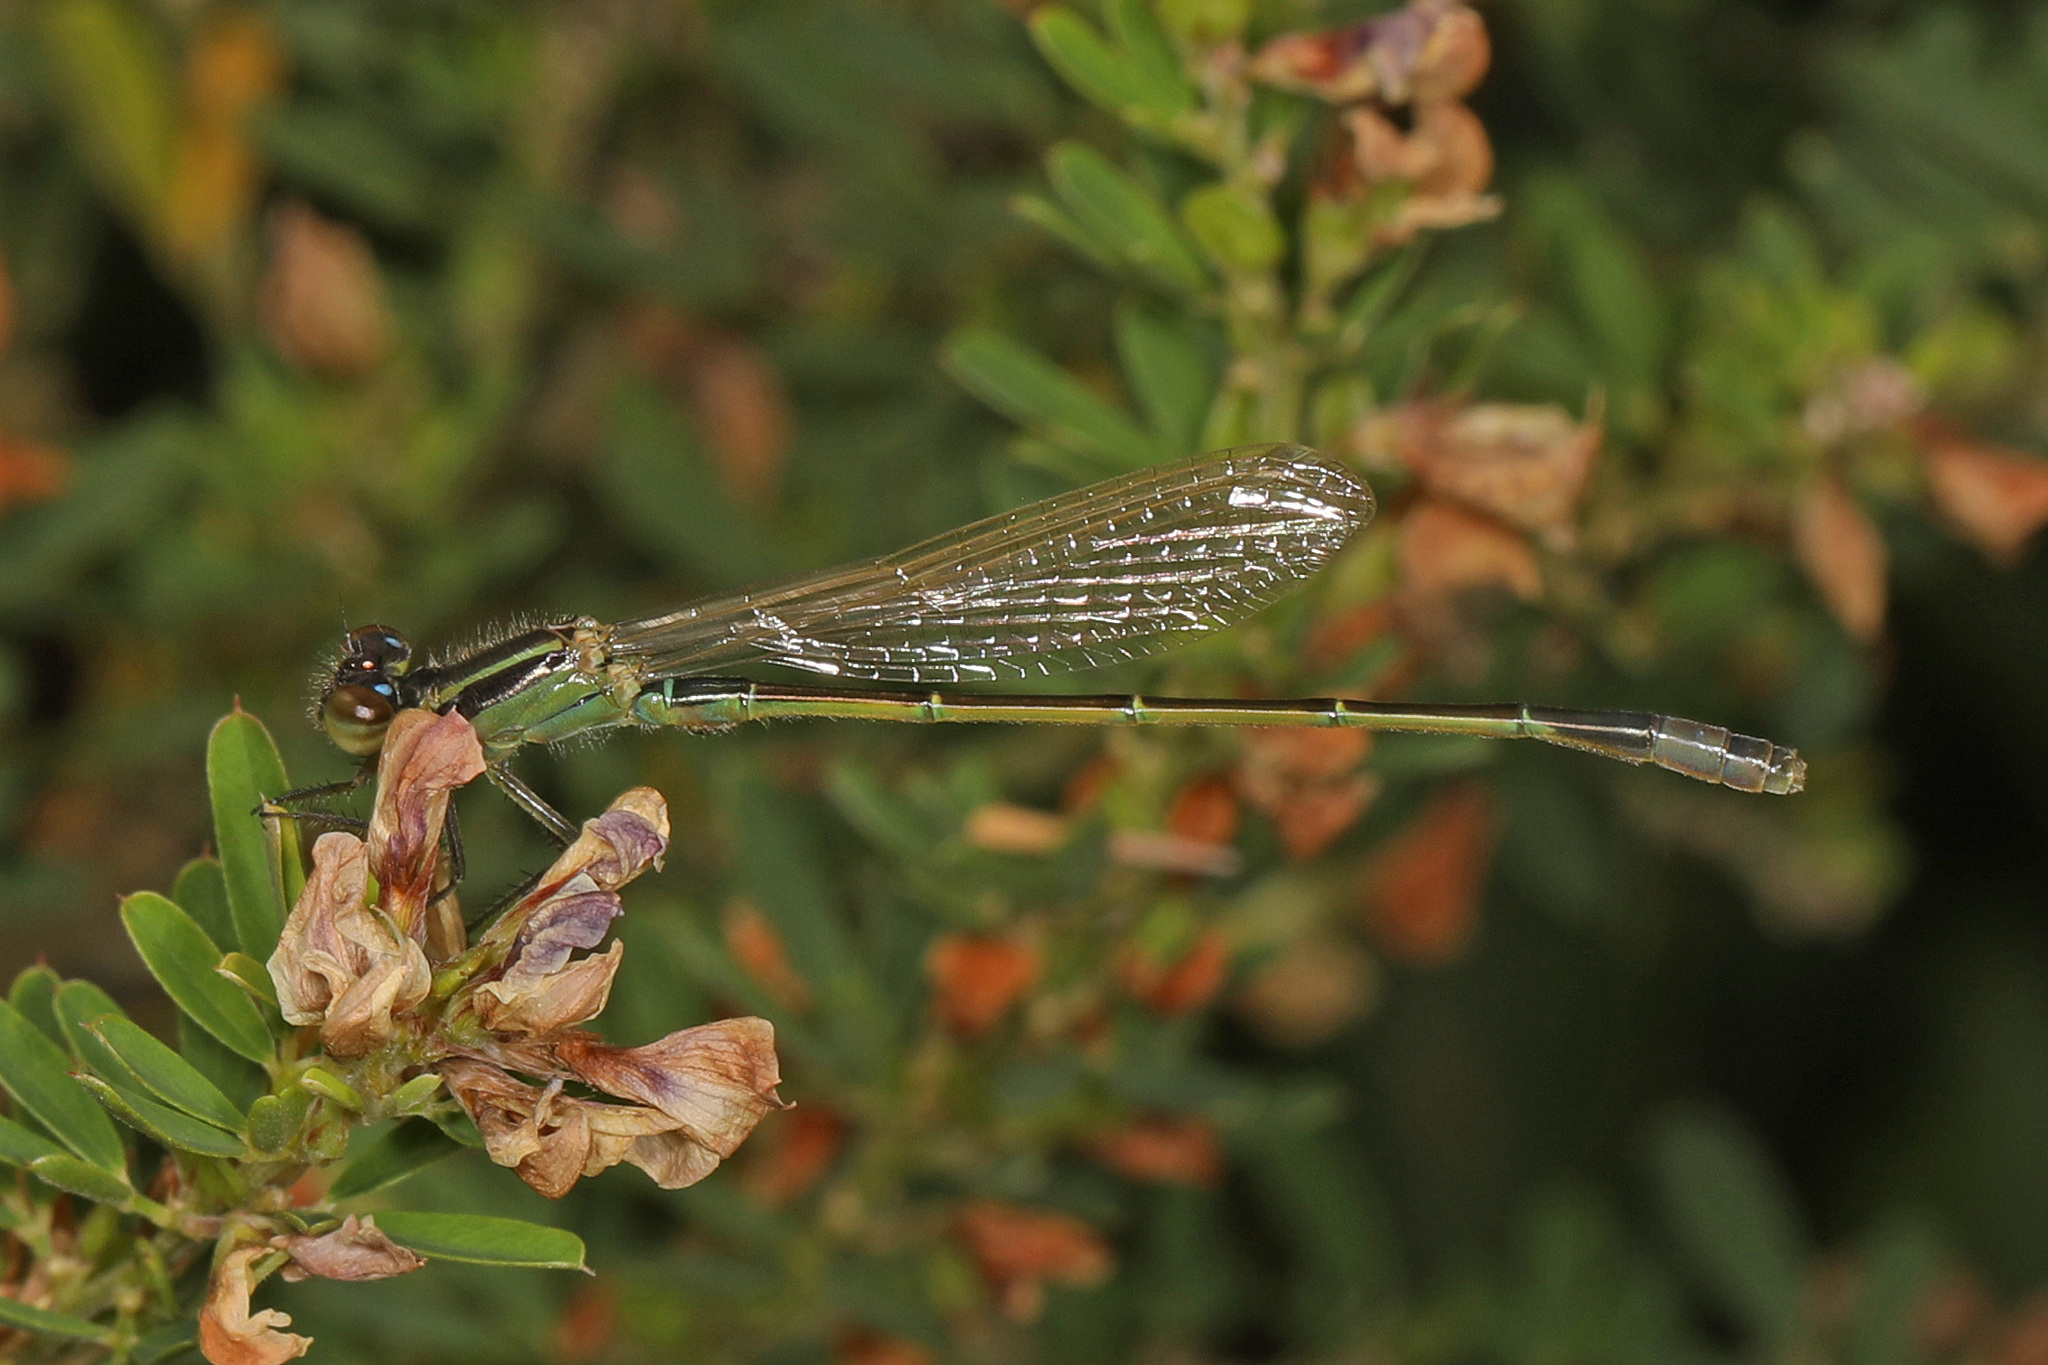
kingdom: Animalia
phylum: Arthropoda
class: Insecta
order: Odonata
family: Coenagrionidae
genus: Ischnura
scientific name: Ischnura ramburii
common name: Rambur's forktail
